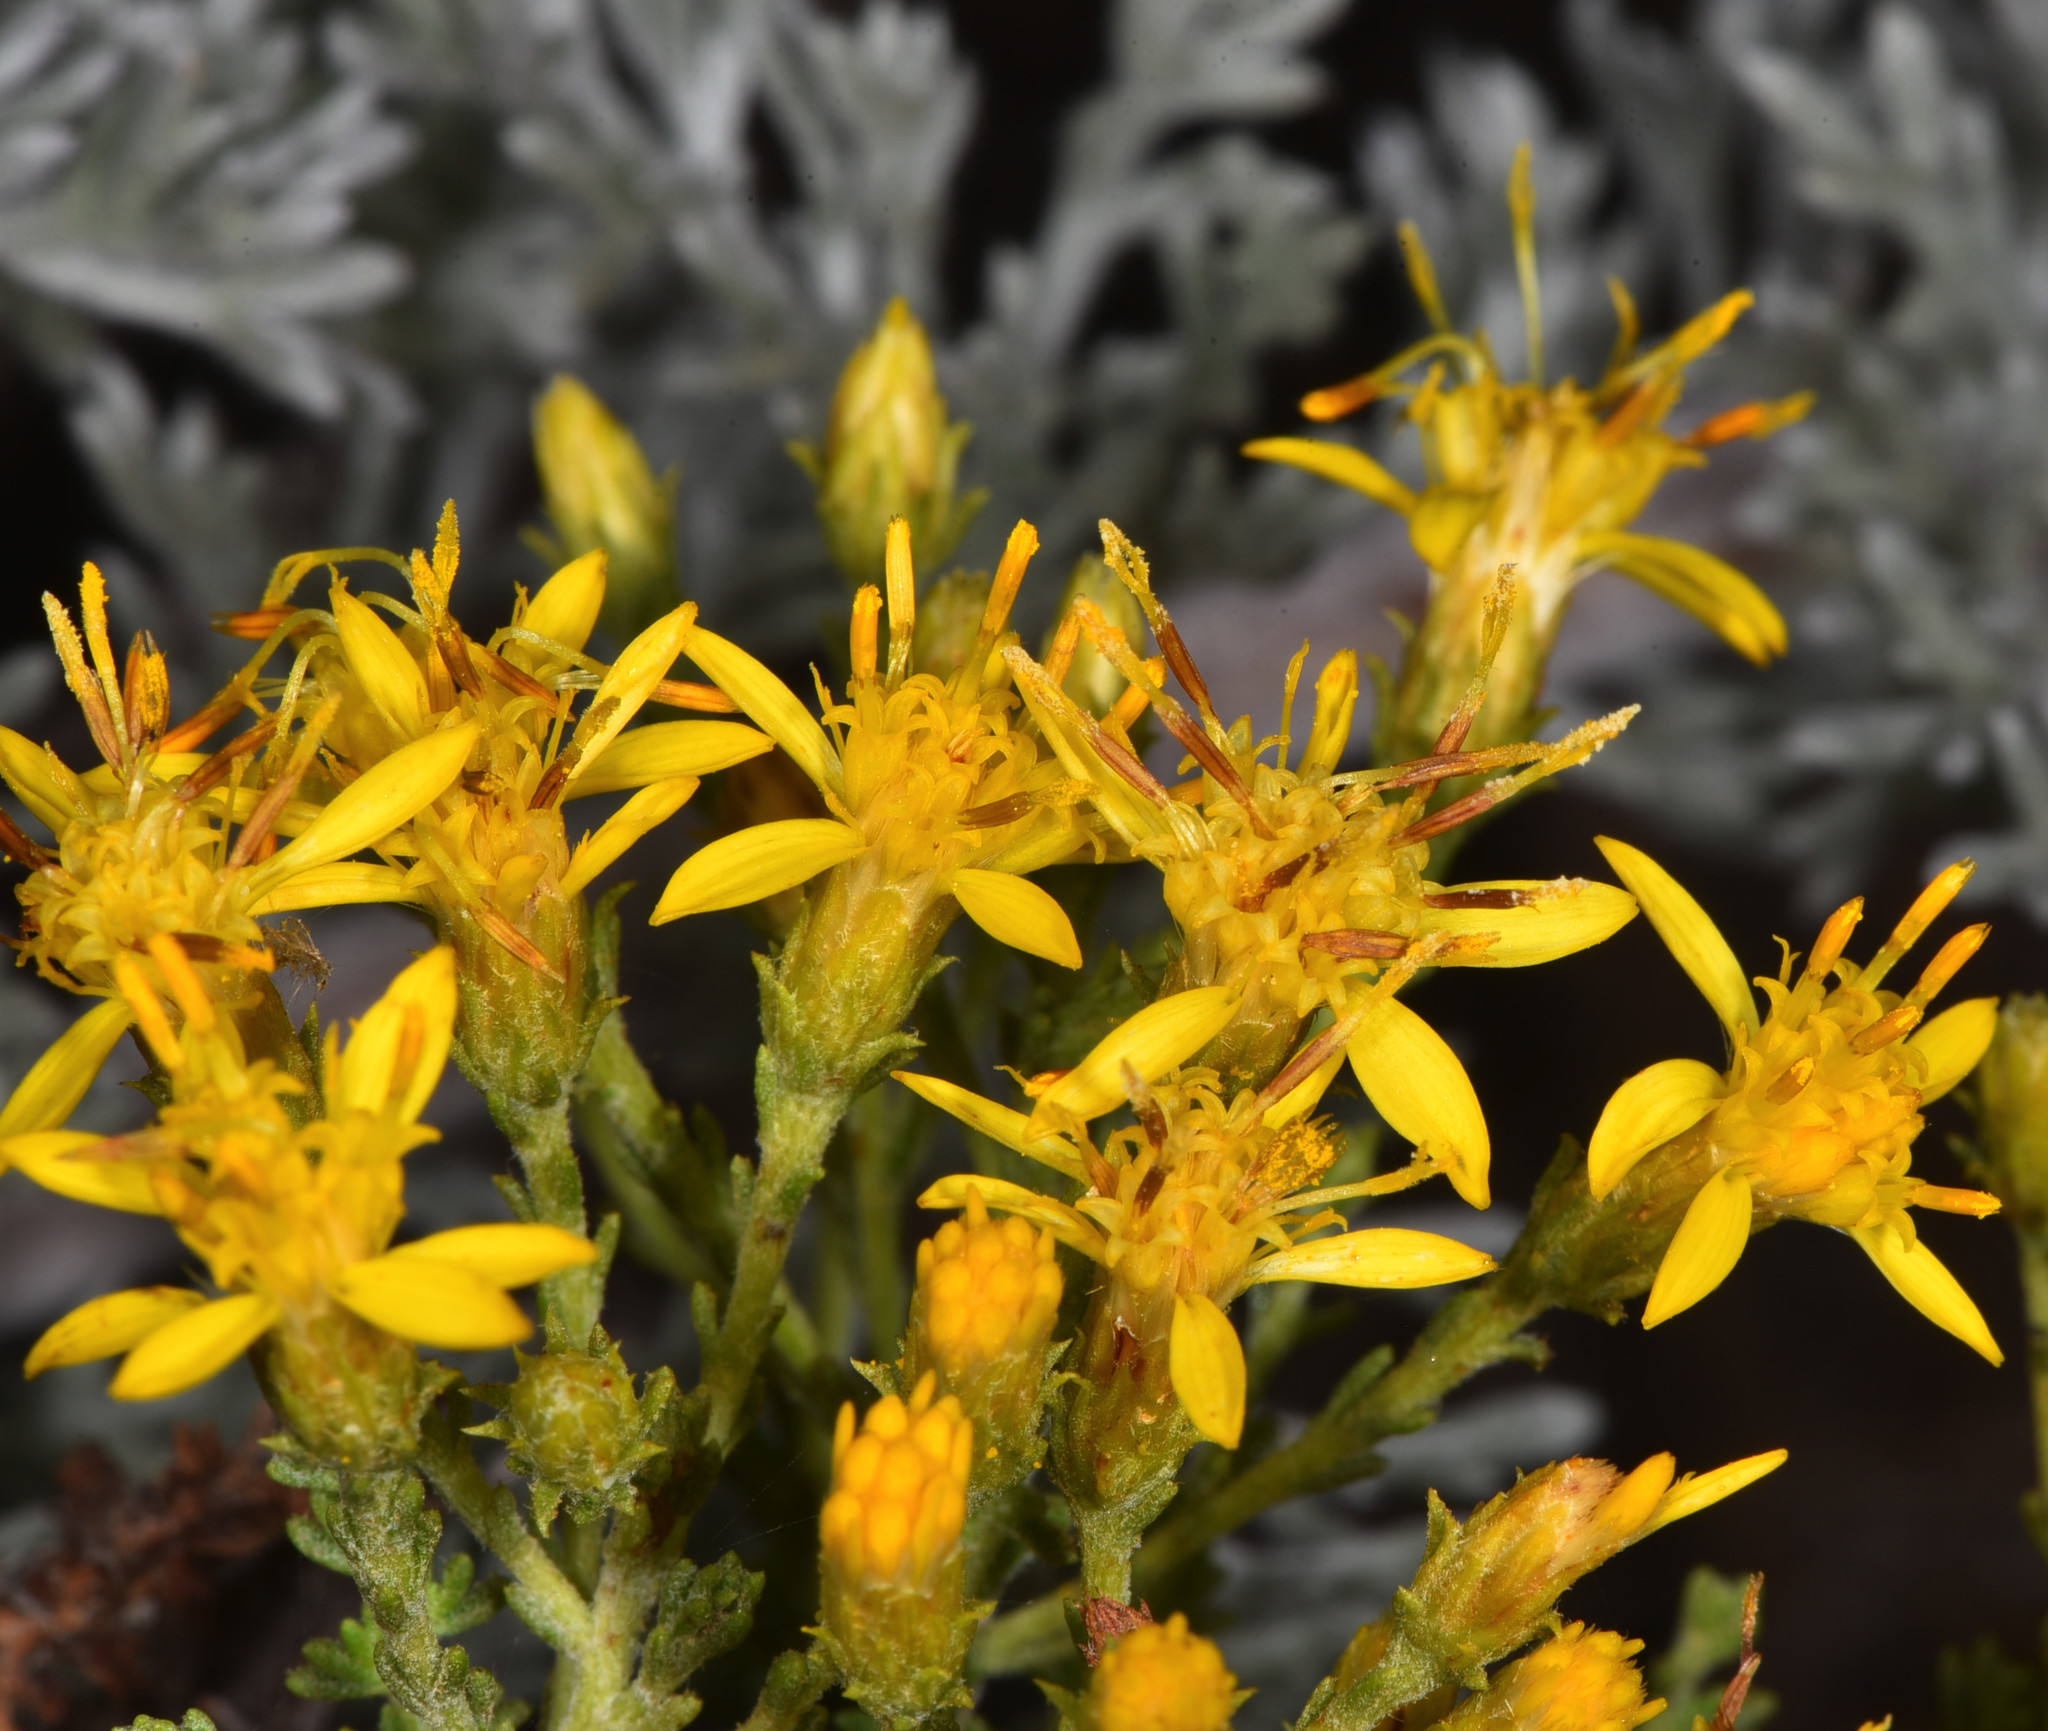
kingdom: Plantae
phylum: Tracheophyta
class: Magnoliopsida
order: Asterales
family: Asteraceae
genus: Ericameria
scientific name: Ericameria ericoides
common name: California goldenbush
